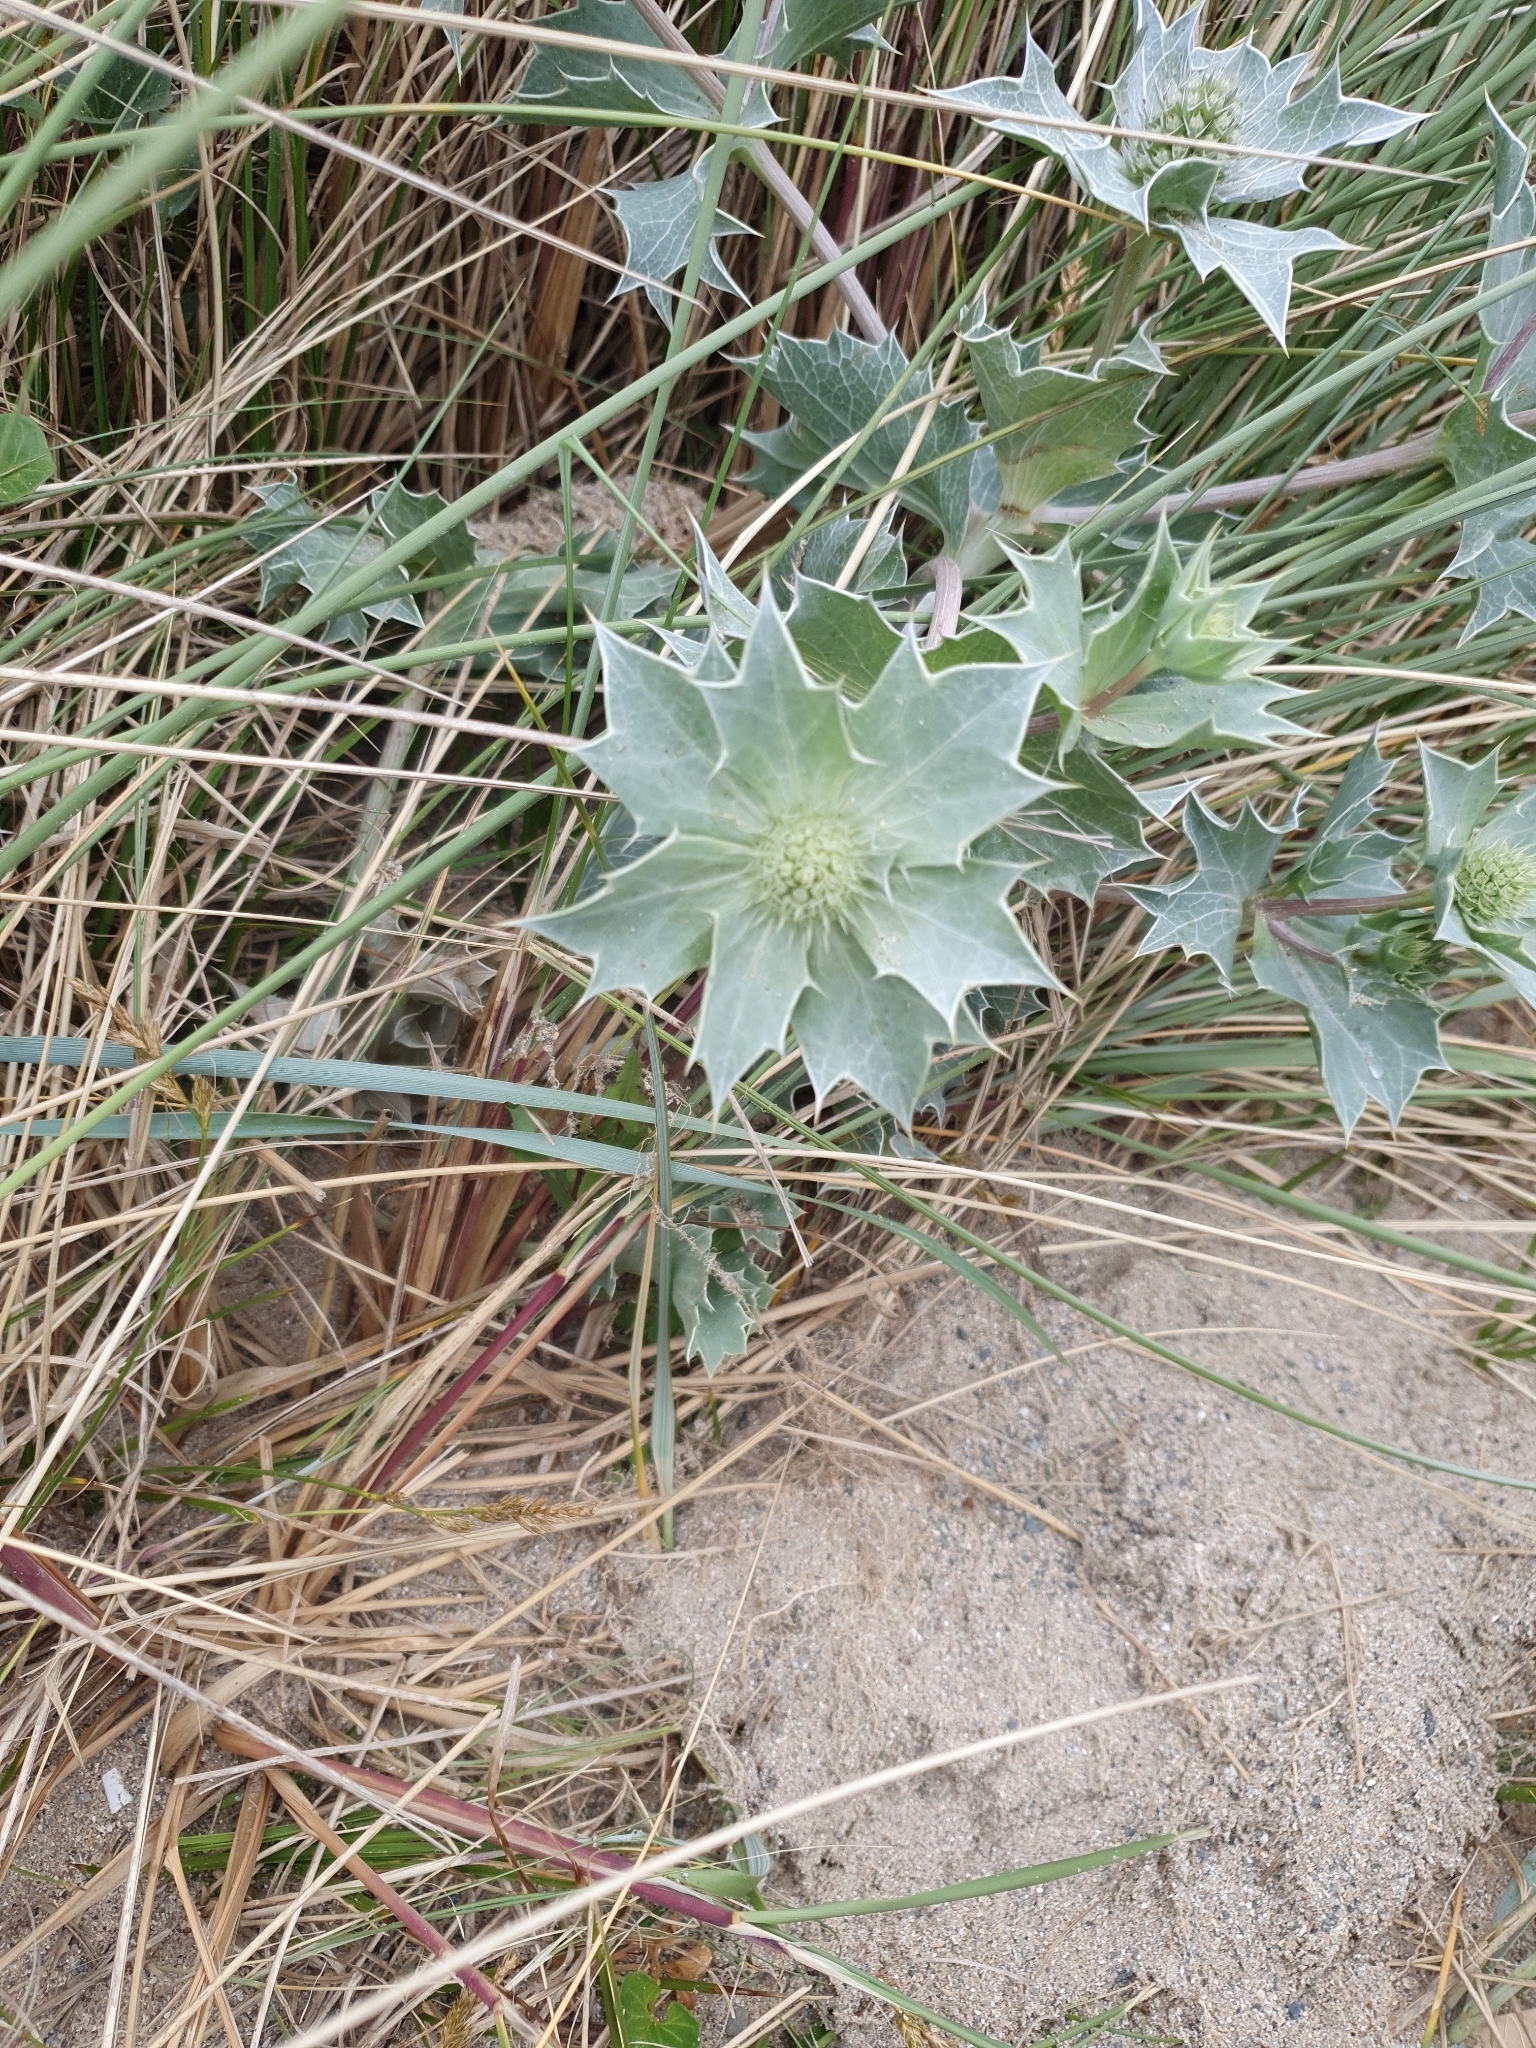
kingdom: Plantae
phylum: Tracheophyta
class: Magnoliopsida
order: Apiales
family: Apiaceae
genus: Eryngium
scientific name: Eryngium maritimum
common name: Sea-holly
